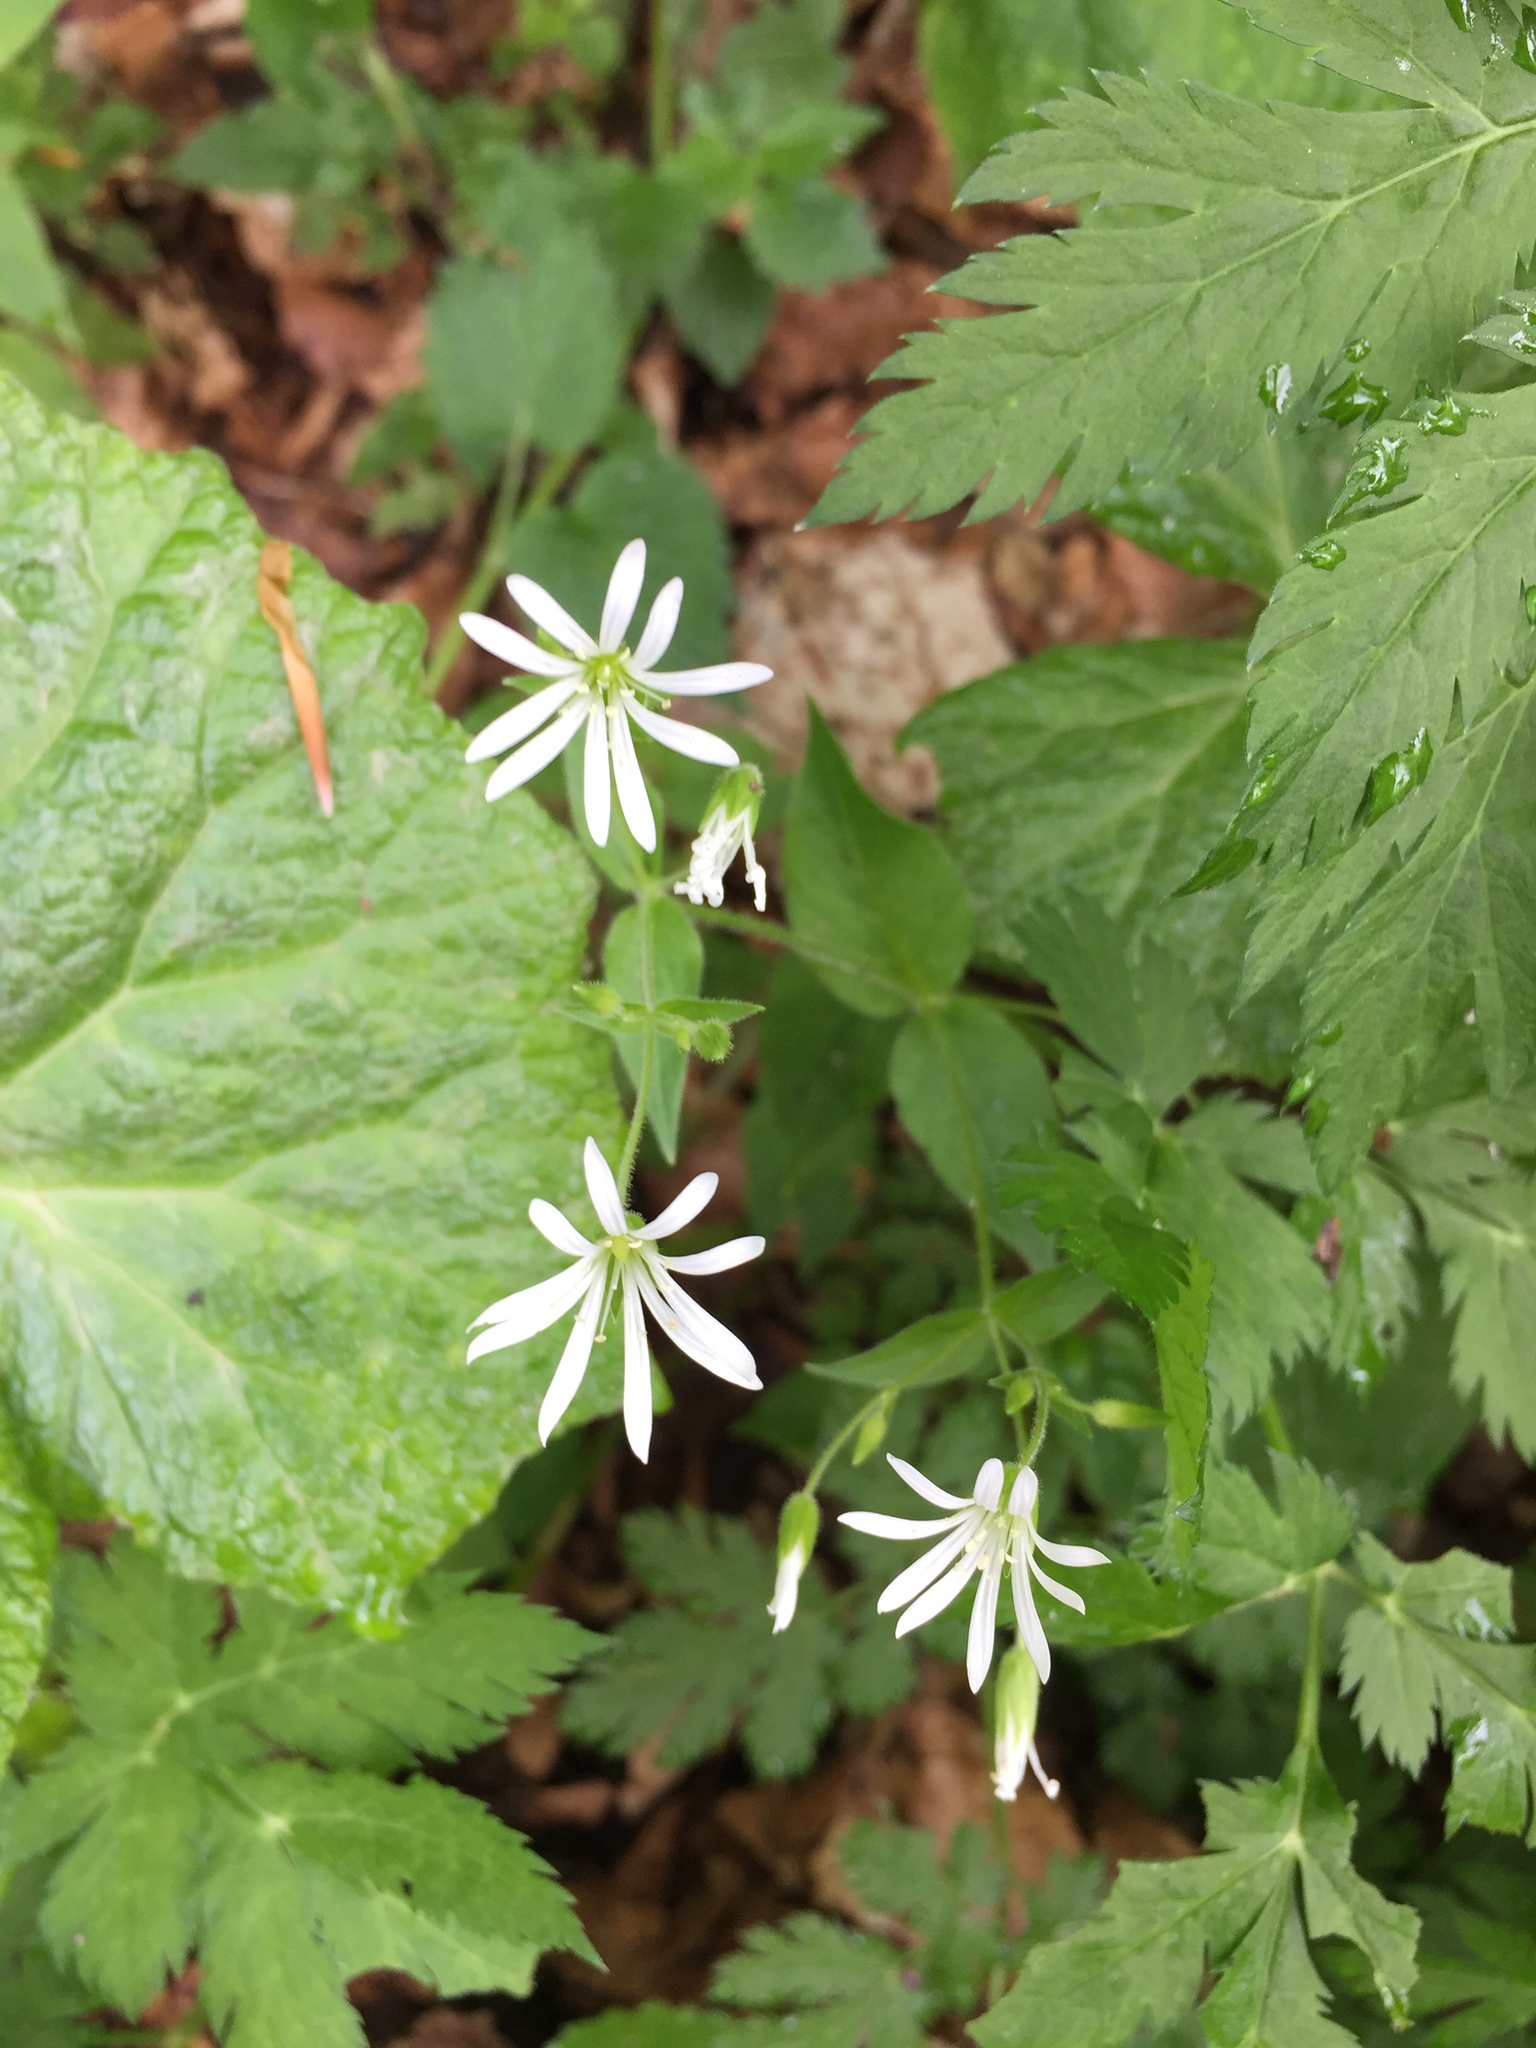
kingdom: Plantae
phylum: Tracheophyta
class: Magnoliopsida
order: Caryophyllales
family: Caryophyllaceae
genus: Stellaria
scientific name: Stellaria nemorum
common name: Wood stitchwort
